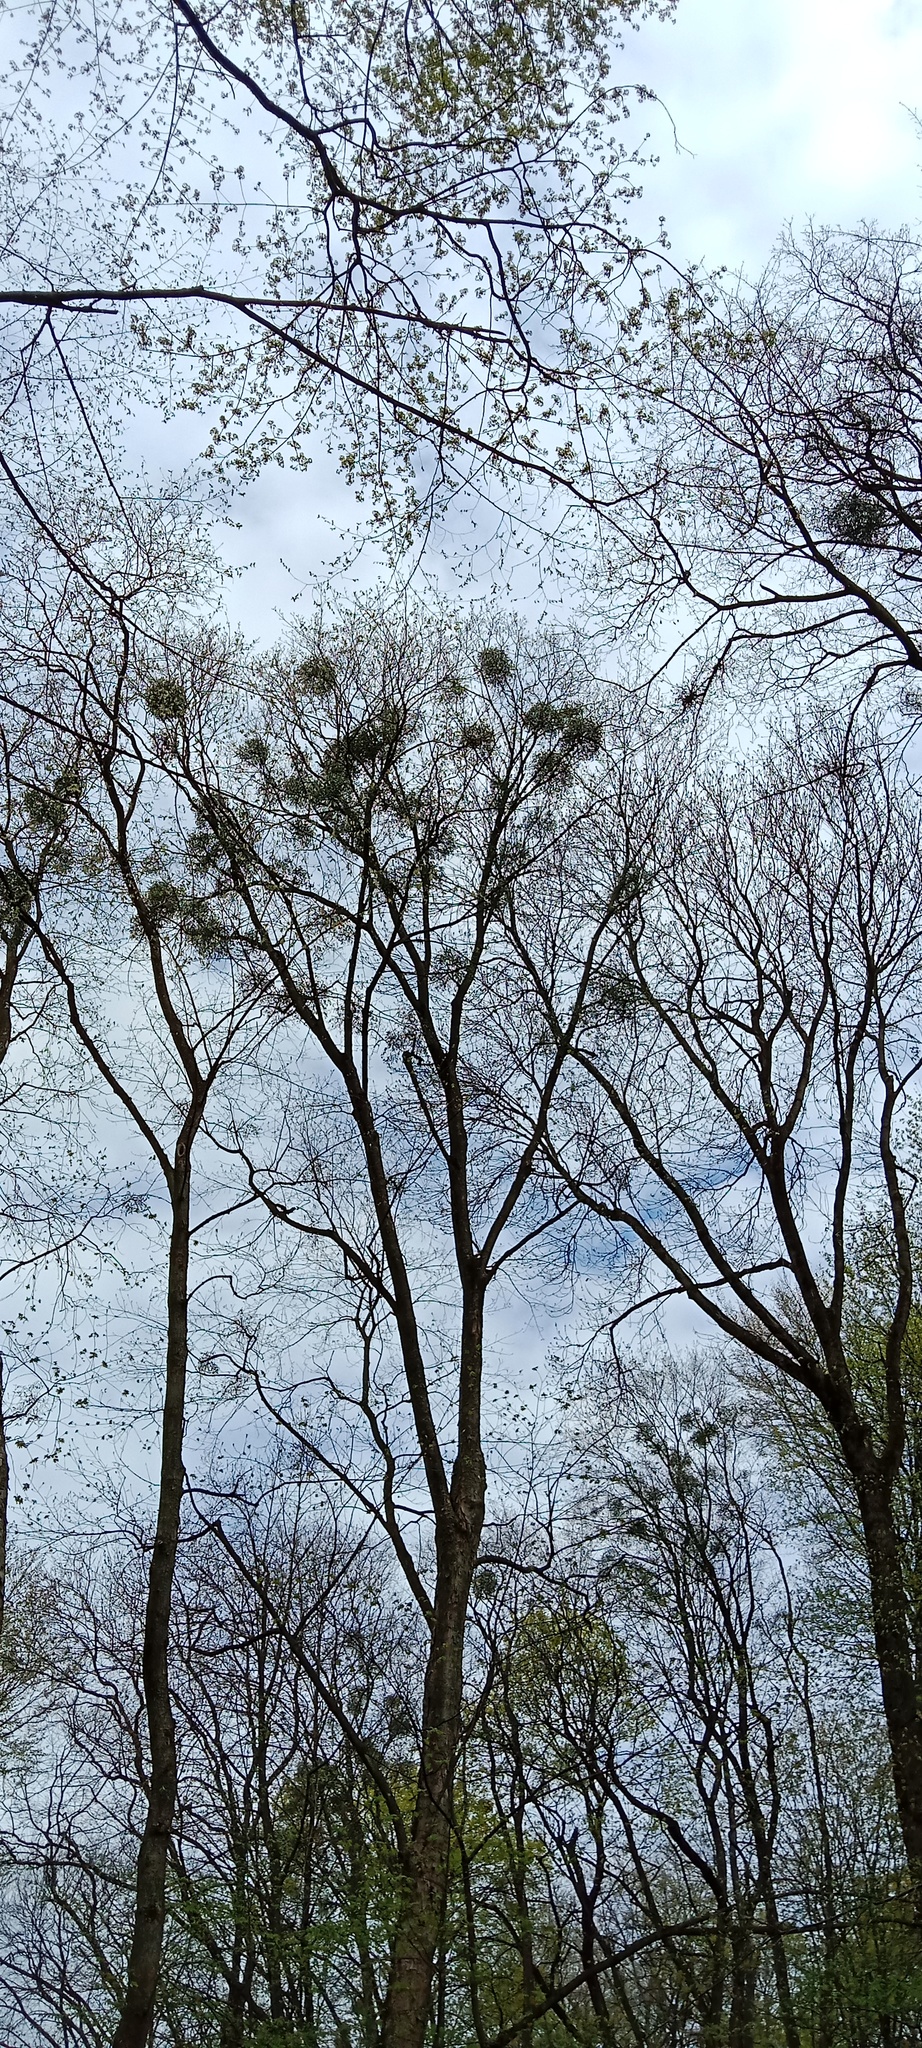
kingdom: Plantae
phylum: Tracheophyta
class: Magnoliopsida
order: Santalales
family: Viscaceae
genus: Viscum
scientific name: Viscum album
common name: Mistletoe
